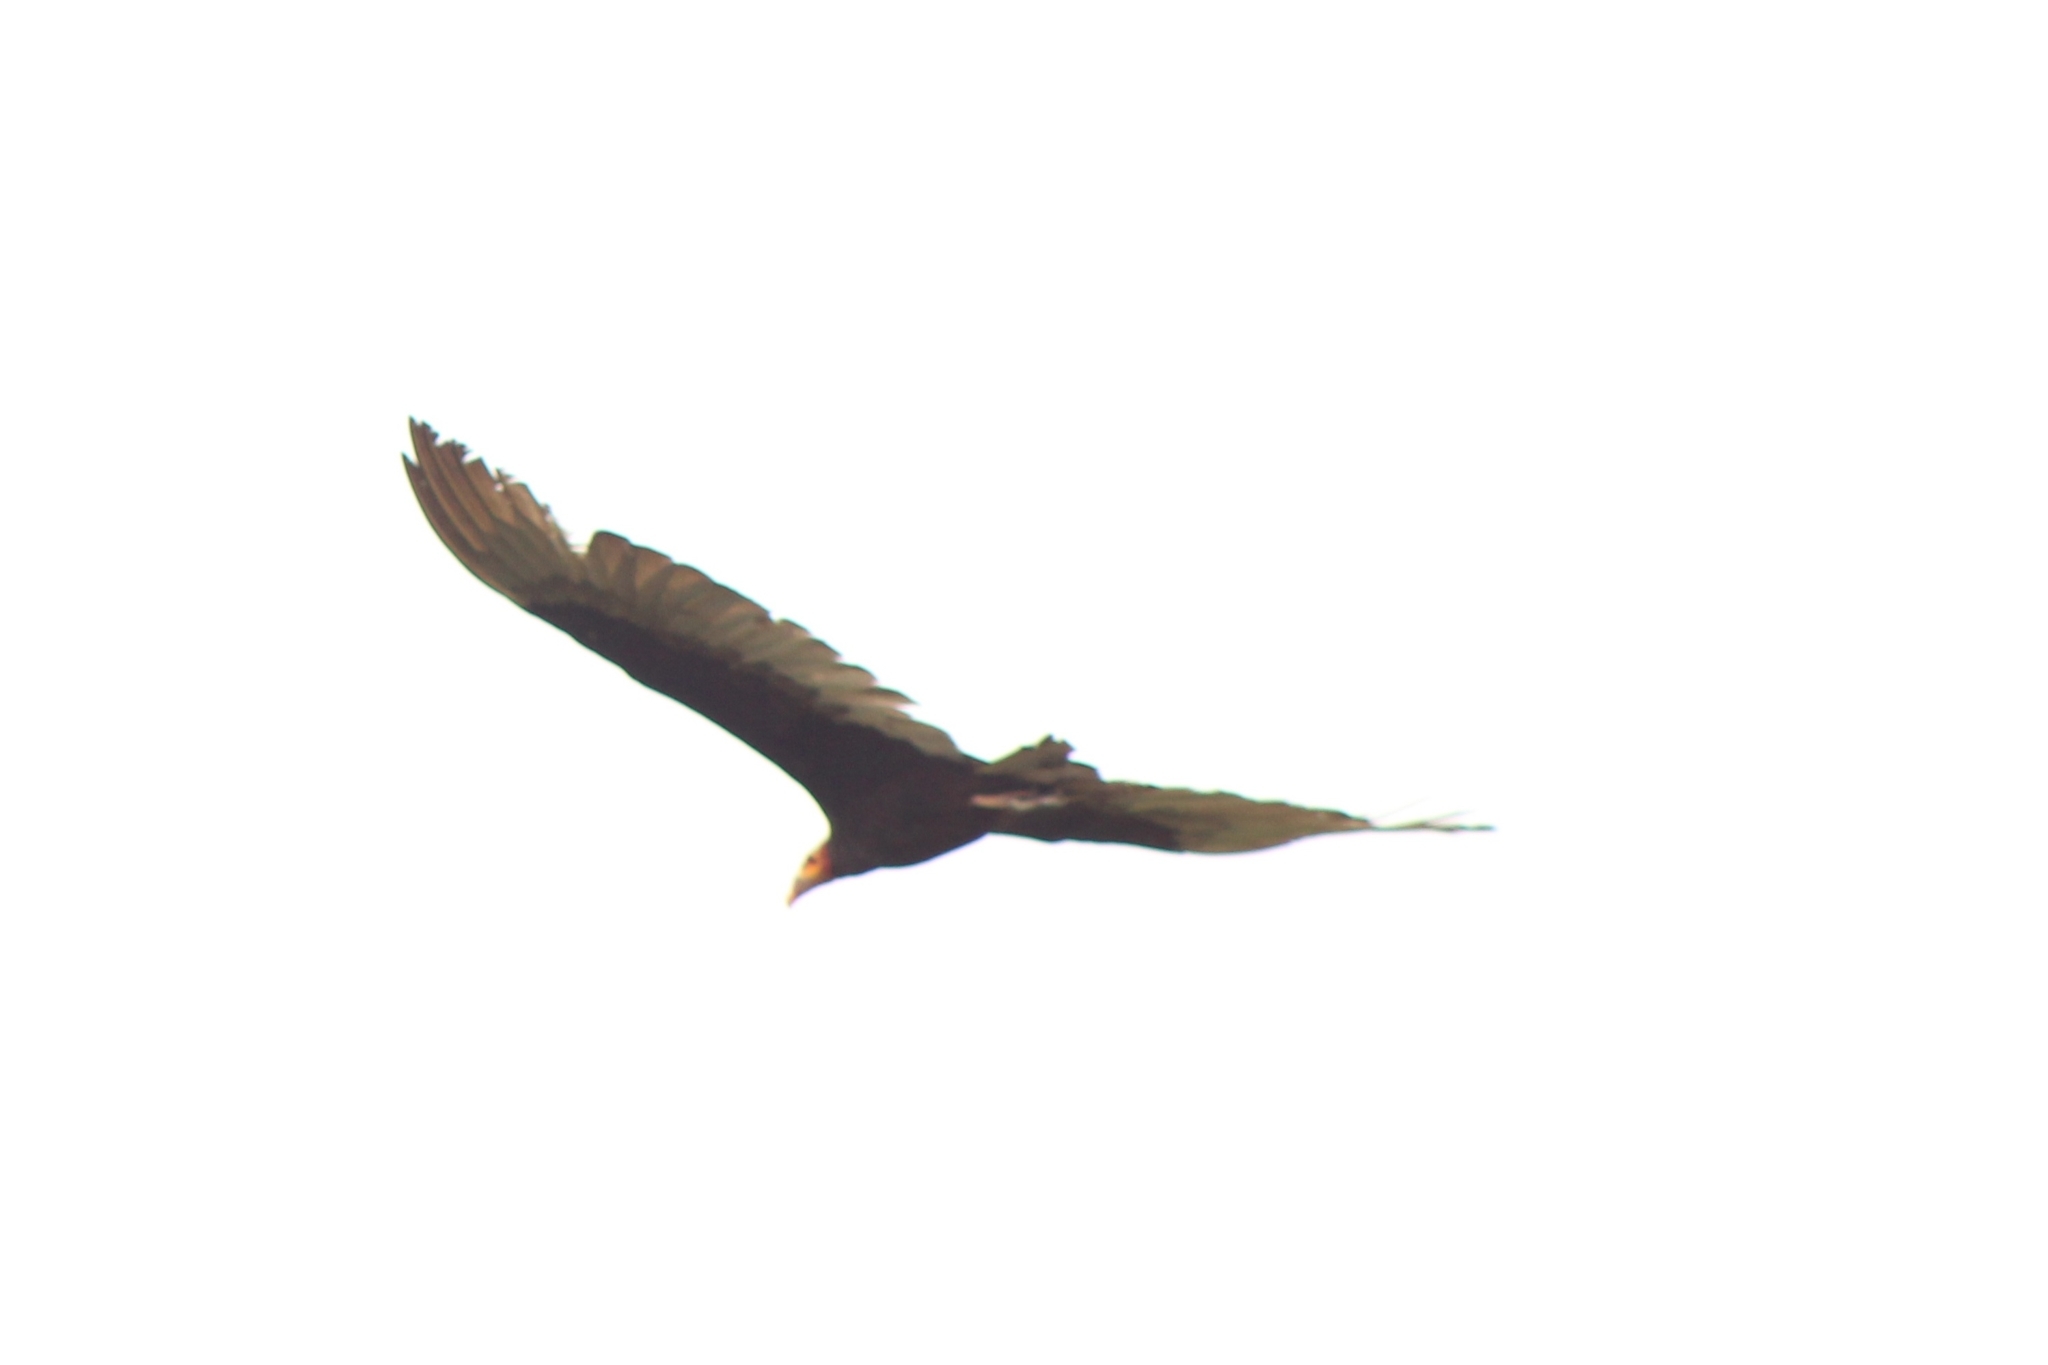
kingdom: Animalia
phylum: Chordata
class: Aves
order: Accipitriformes
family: Cathartidae
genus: Cathartes
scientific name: Cathartes burrovianus
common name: Lesser yellow-headed vulture
